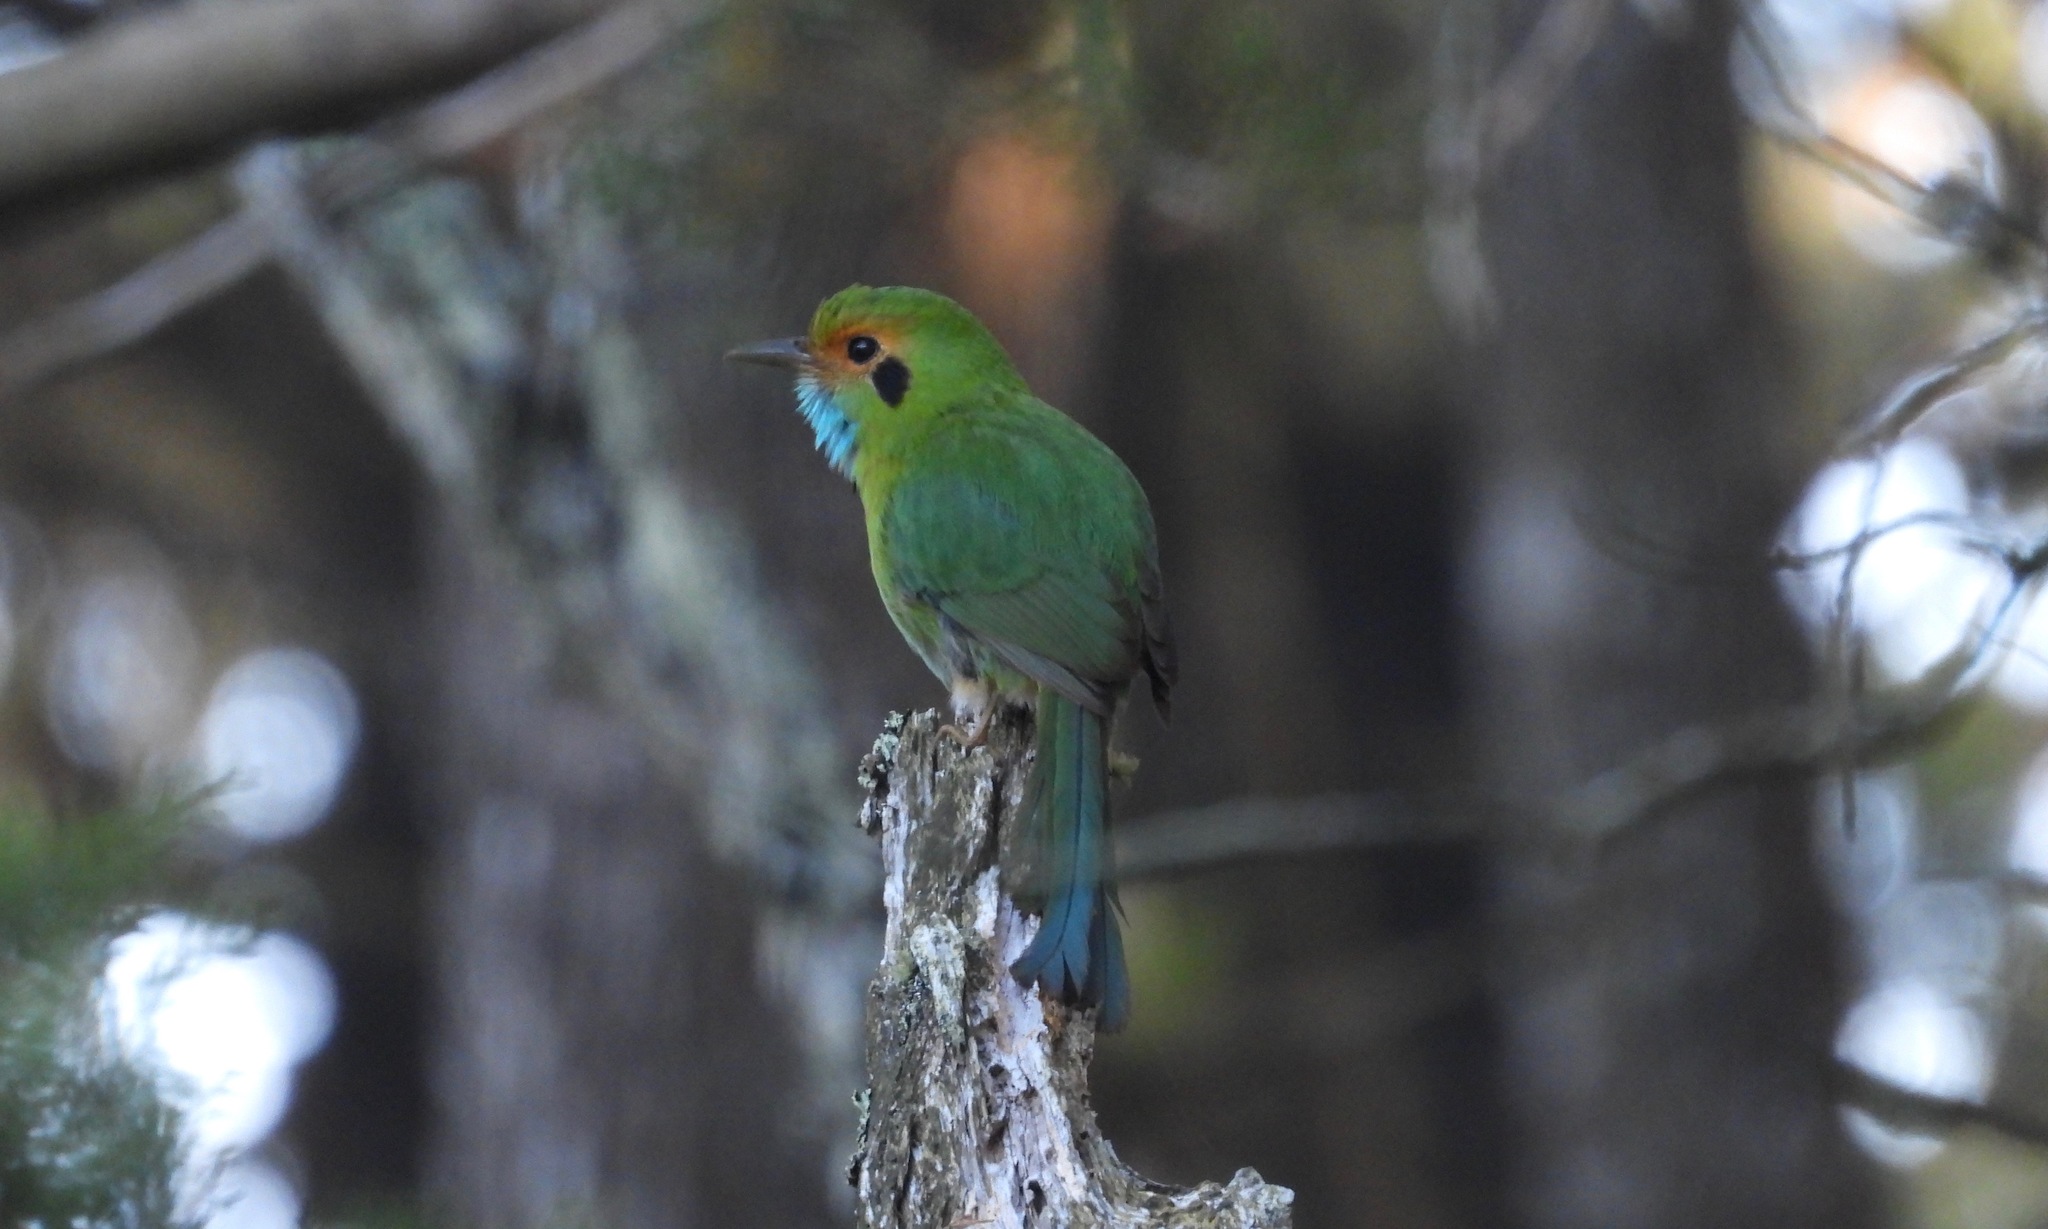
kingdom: Animalia
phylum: Chordata
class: Aves
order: Coraciiformes
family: Momotidae
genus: Aspatha
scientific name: Aspatha gularis
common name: Blue-throated motmot
